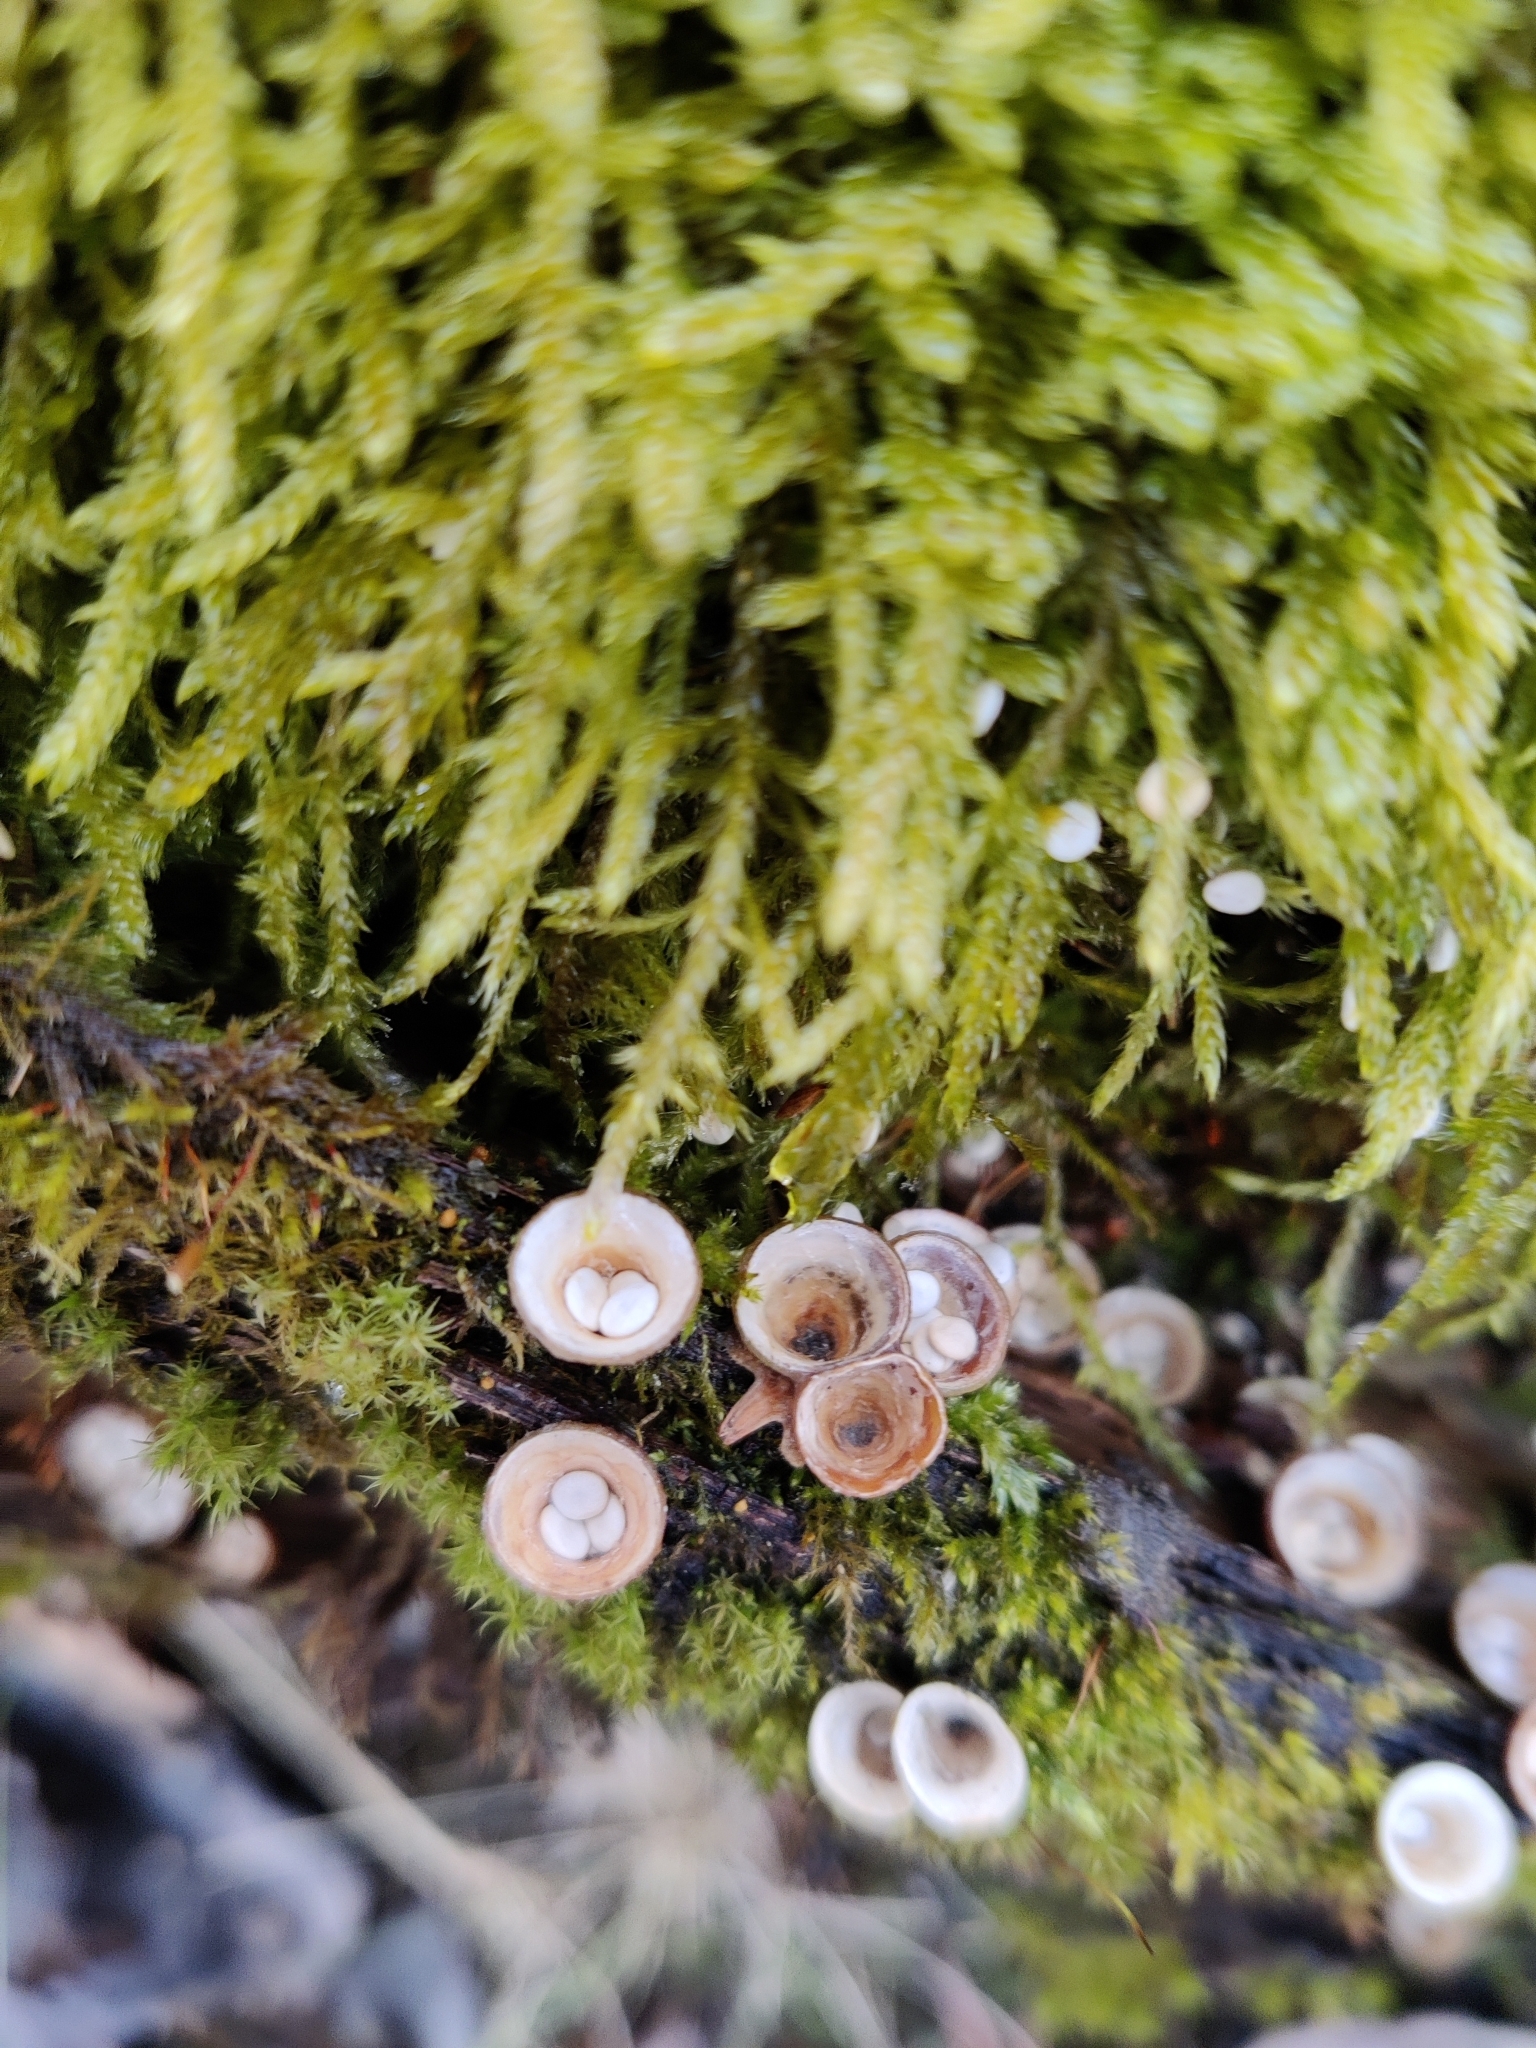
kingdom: Fungi
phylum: Basidiomycota
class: Agaricomycetes
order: Agaricales
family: Nidulariaceae
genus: Crucibulum
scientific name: Crucibulum laeve
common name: Common bird's nest
